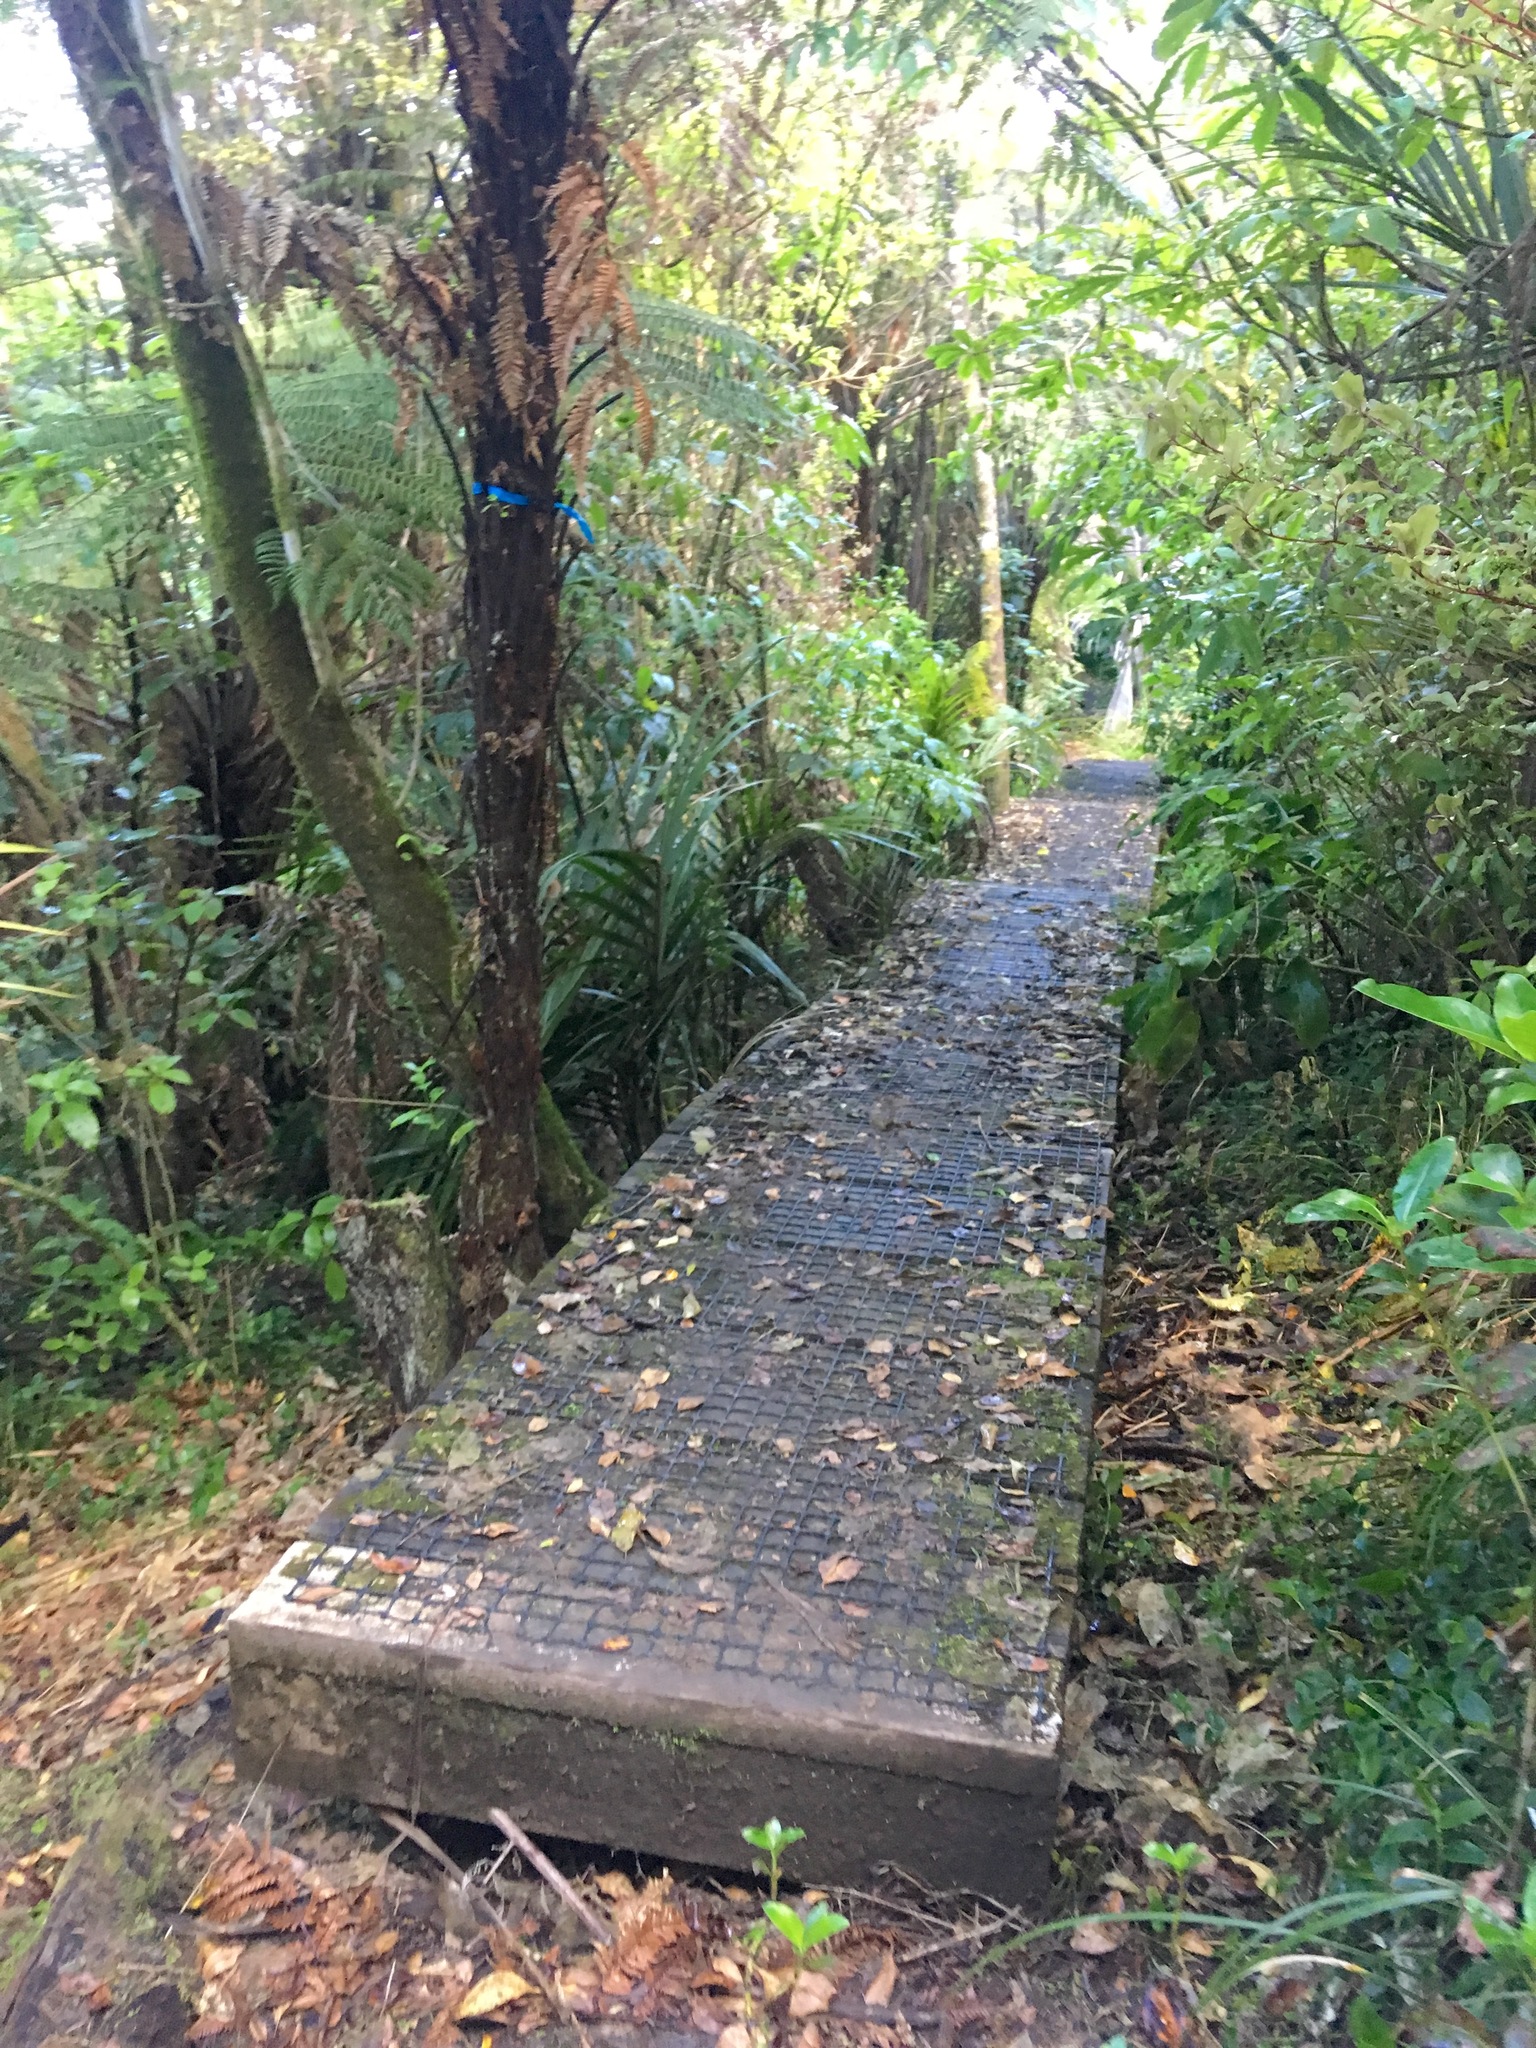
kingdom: Plantae
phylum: Tracheophyta
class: Magnoliopsida
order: Gentianales
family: Loganiaceae
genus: Geniostoma
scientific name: Geniostoma ligustrifolium
